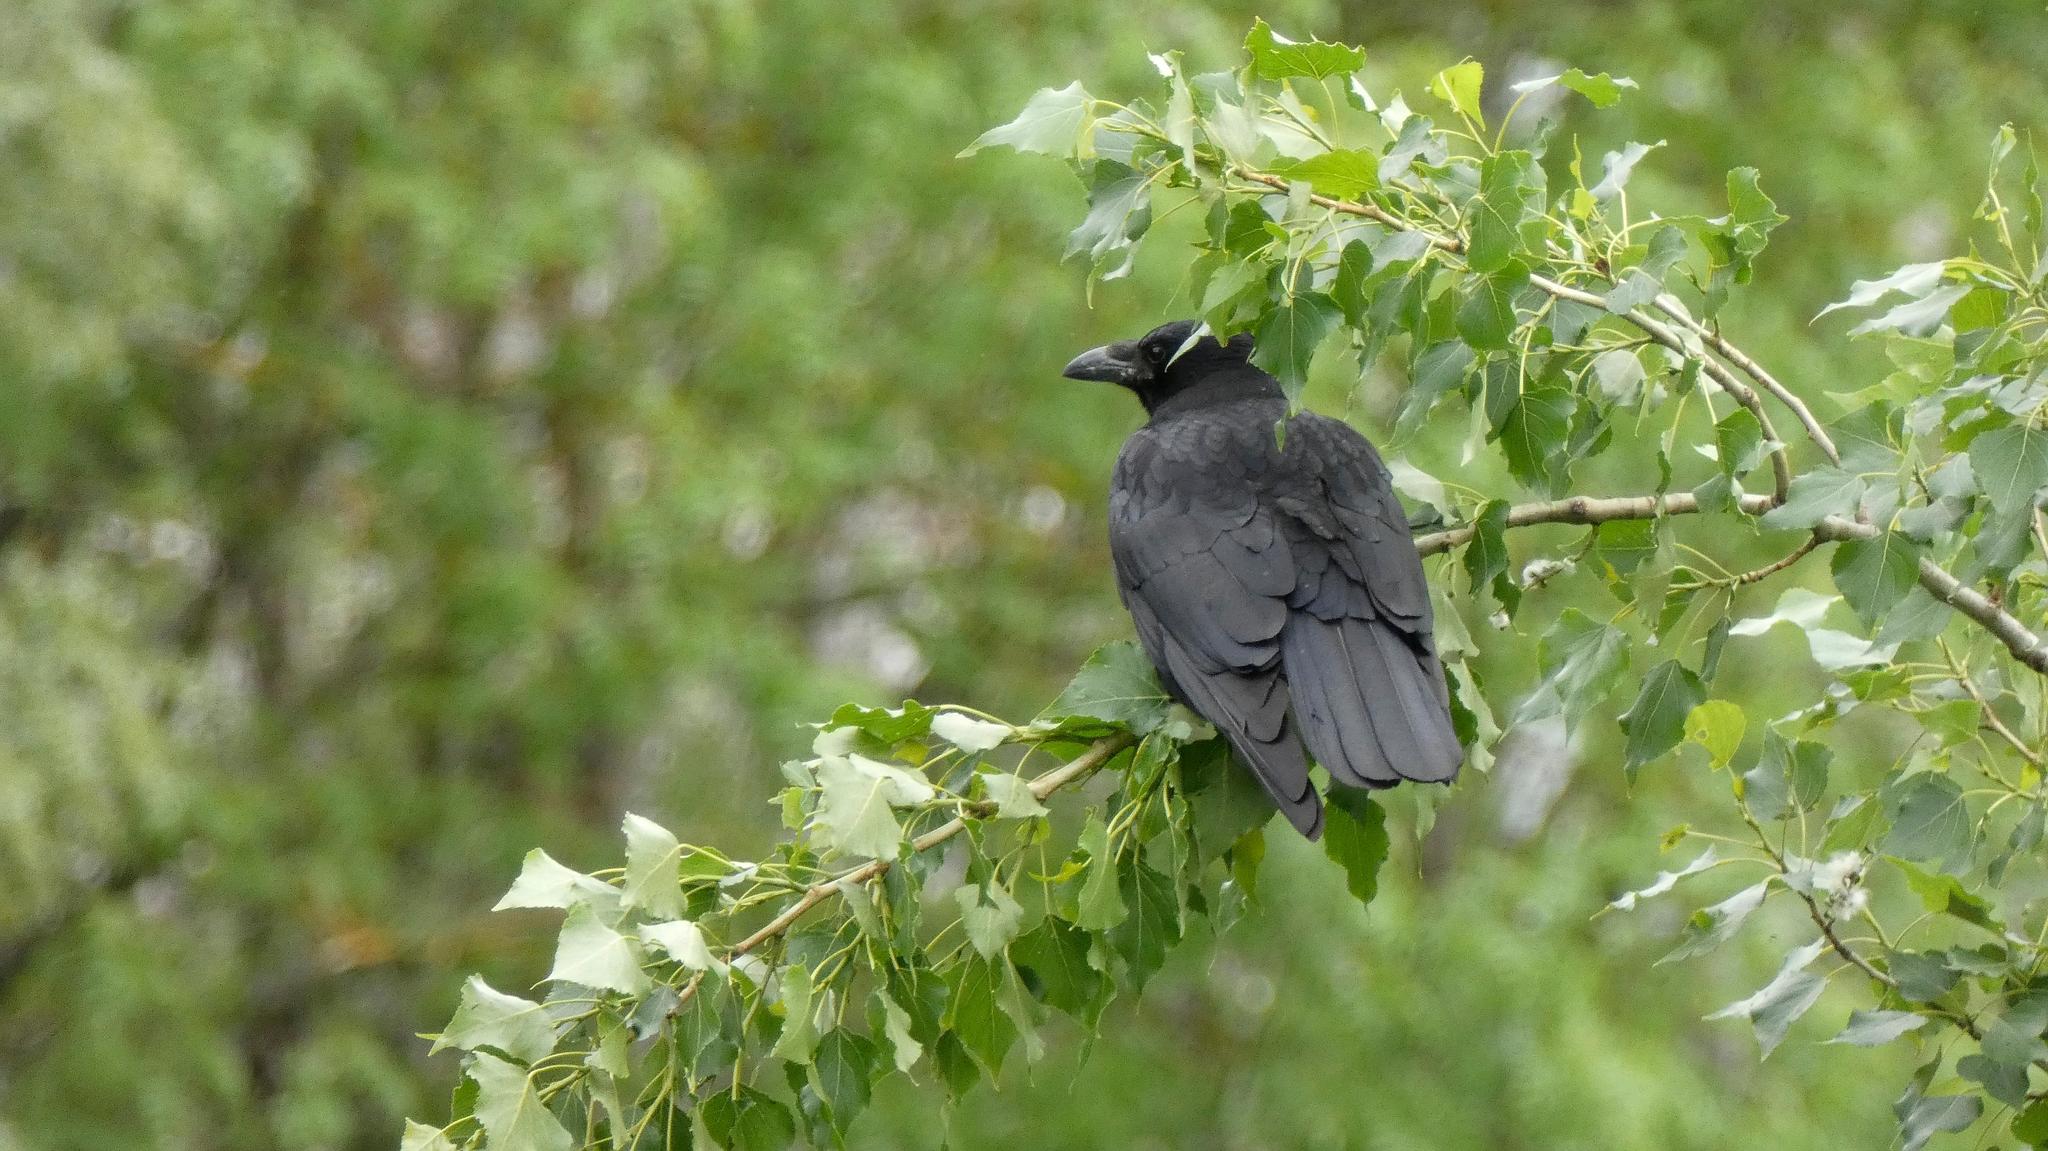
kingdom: Animalia
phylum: Chordata
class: Aves
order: Passeriformes
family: Corvidae
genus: Corvus
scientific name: Corvus corone
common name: Carrion crow
